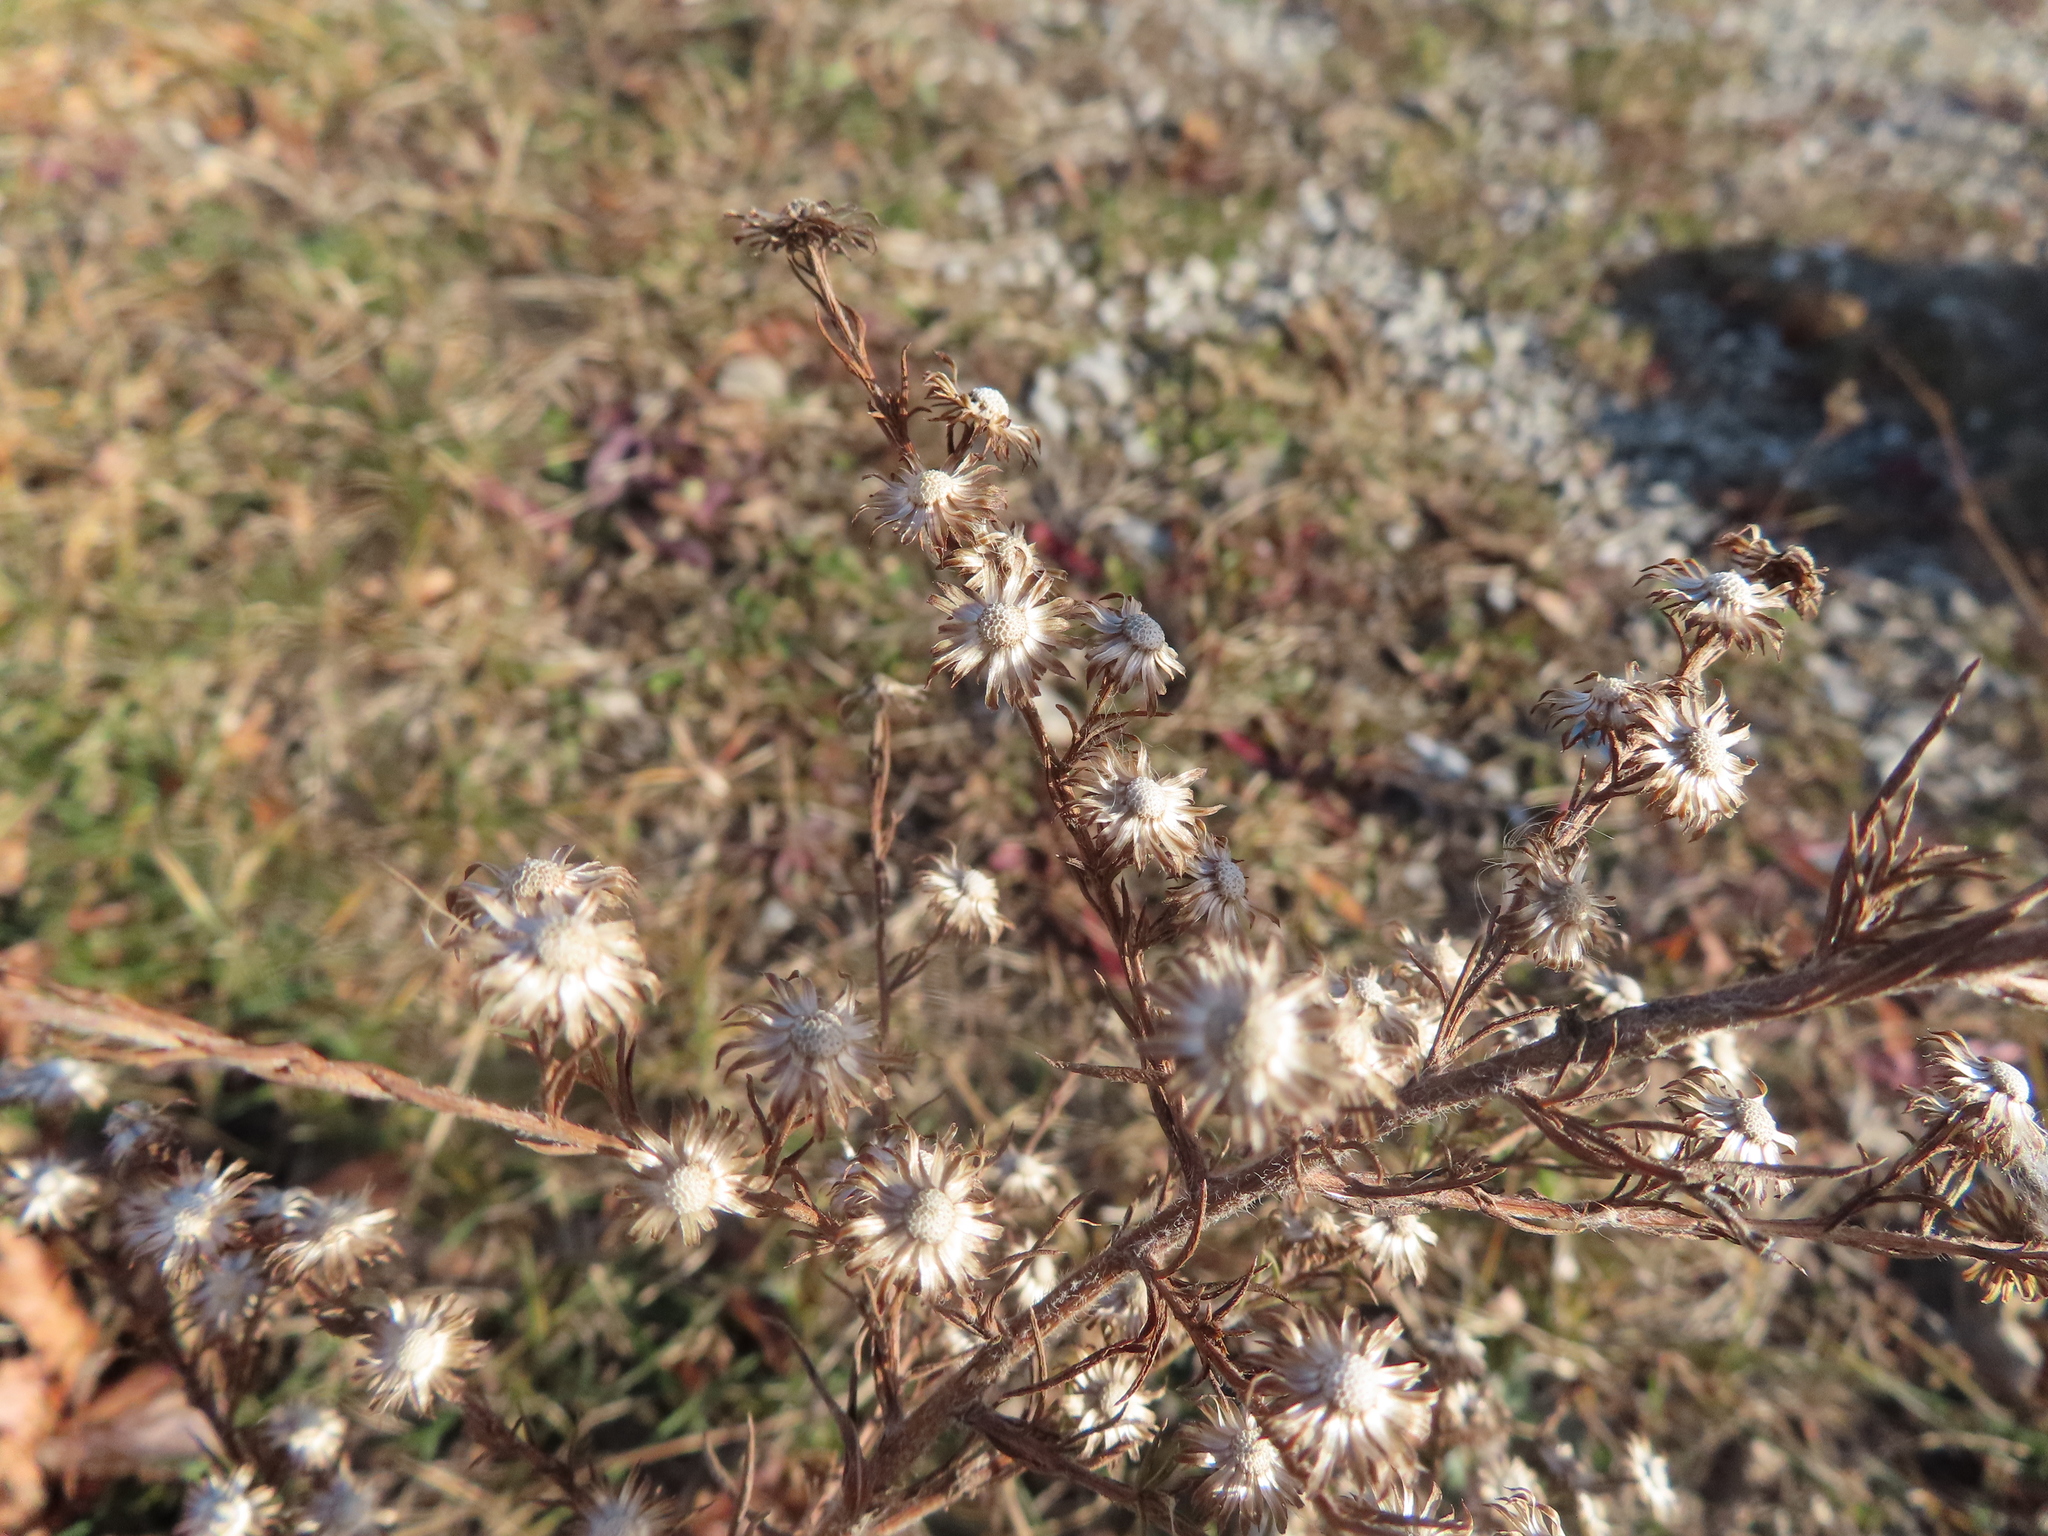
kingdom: Plantae
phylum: Tracheophyta
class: Magnoliopsida
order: Asterales
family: Asteraceae
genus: Symphyotrichum
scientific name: Symphyotrichum pilosum
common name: Awl aster
